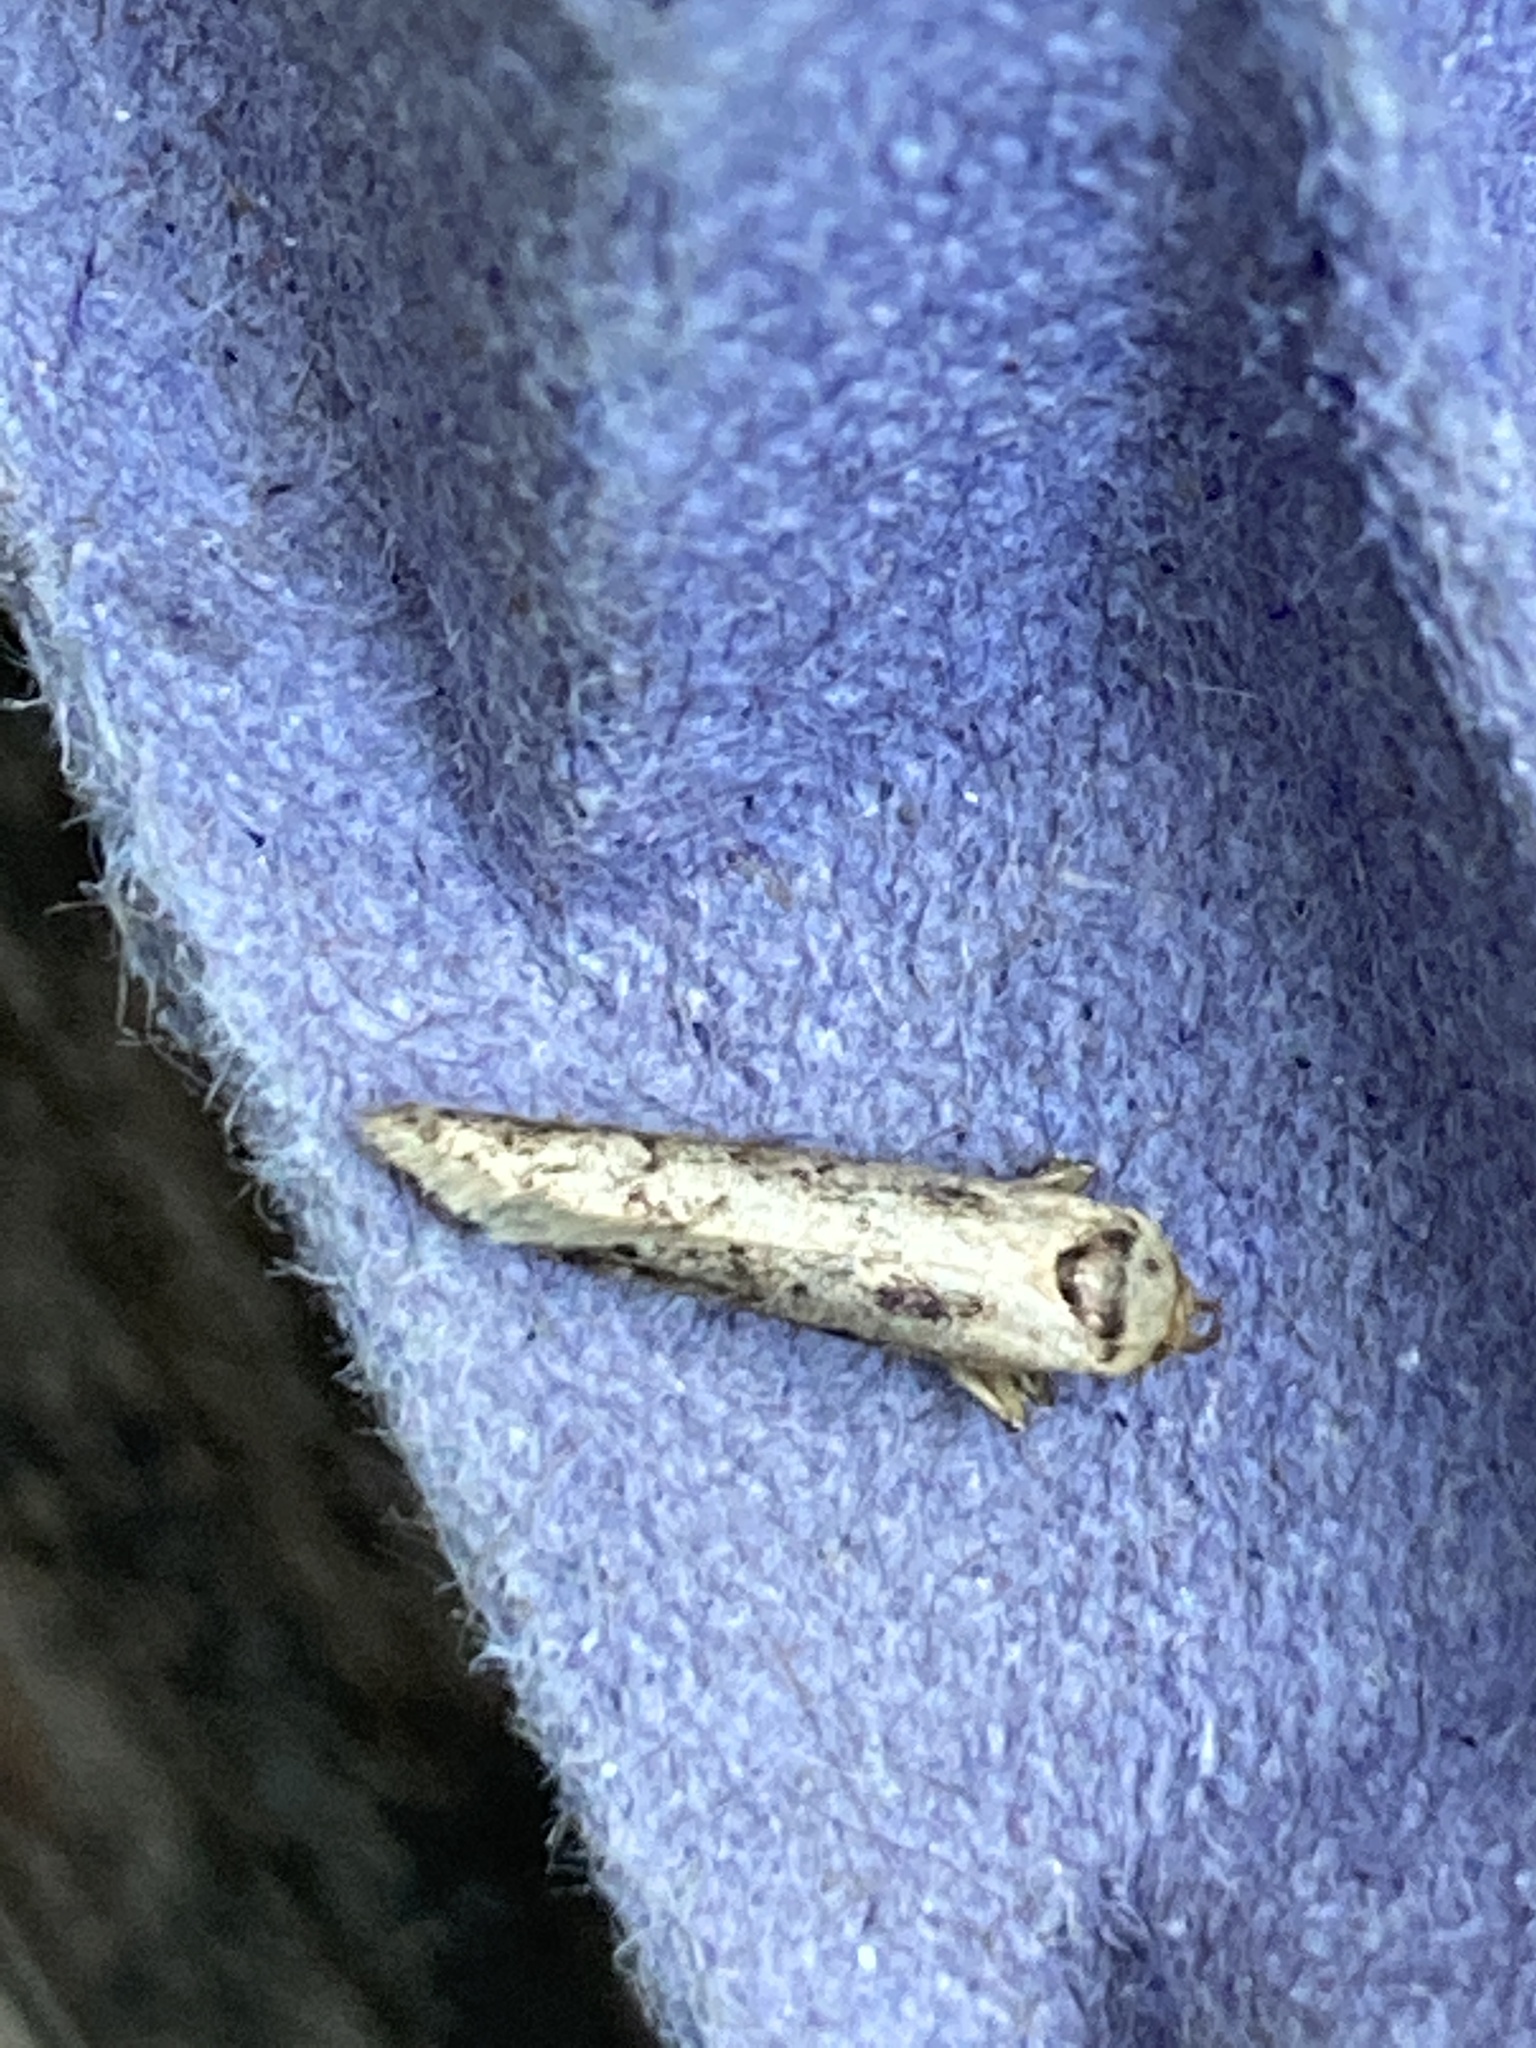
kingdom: Animalia
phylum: Arthropoda
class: Insecta
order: Lepidoptera
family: Blastobasidae
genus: Blastobasis
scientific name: Blastobasis adustella
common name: Dingy dowd
